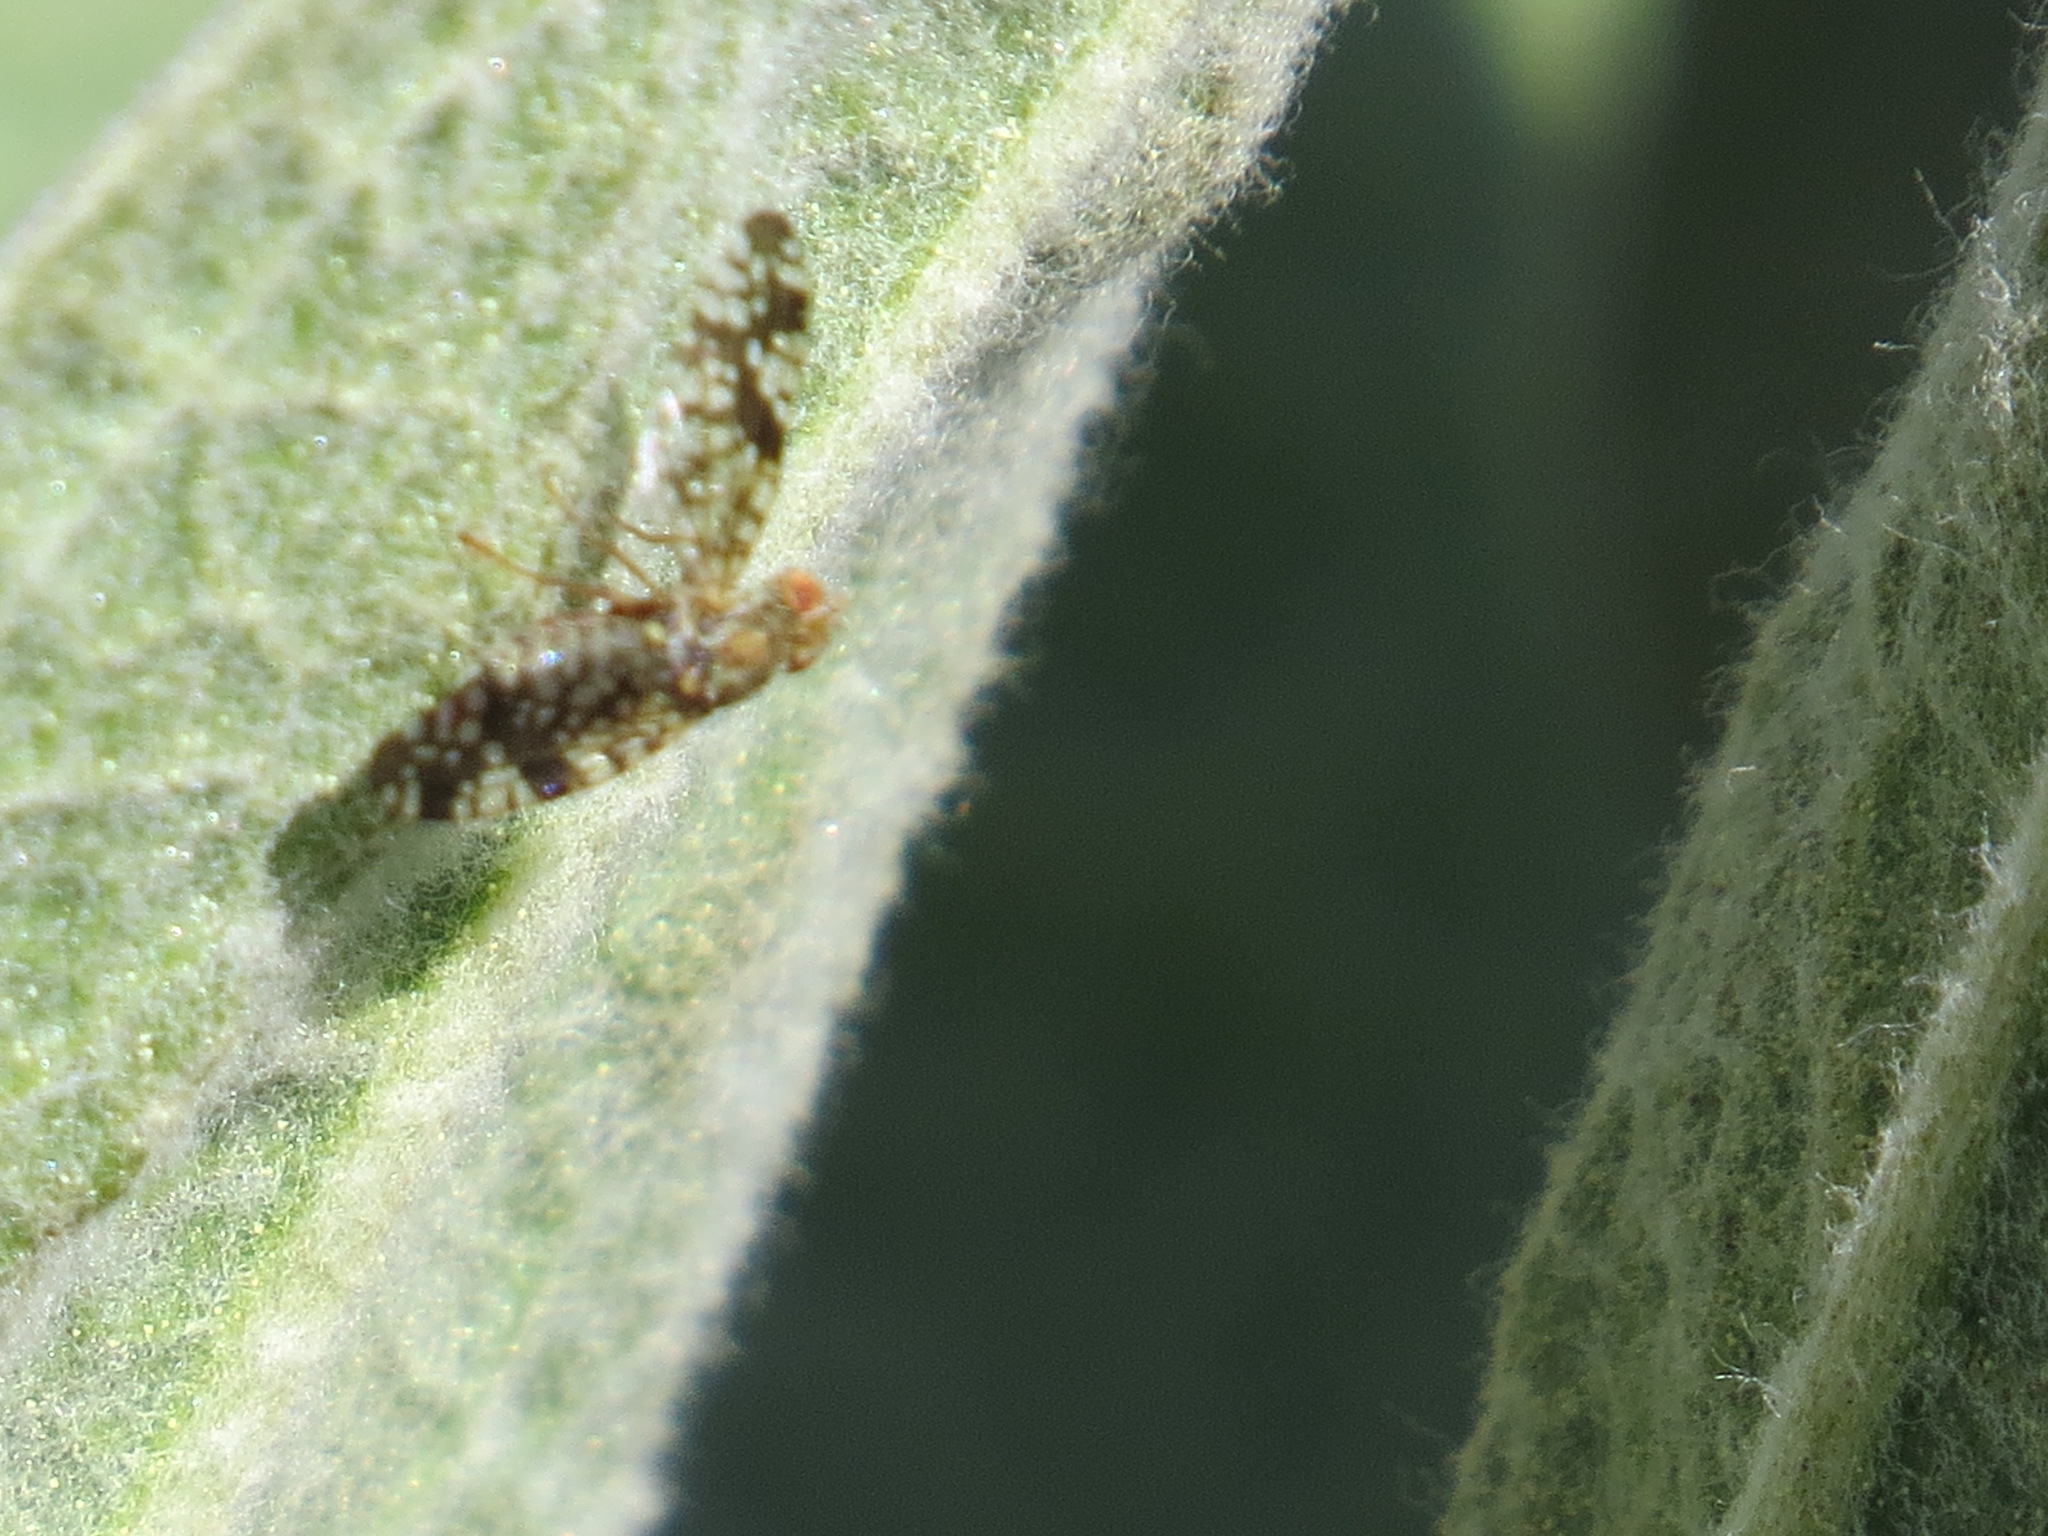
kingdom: Animalia
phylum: Arthropoda
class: Insecta
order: Diptera
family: Tephritidae
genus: Neotephritis
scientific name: Neotephritis finalis
